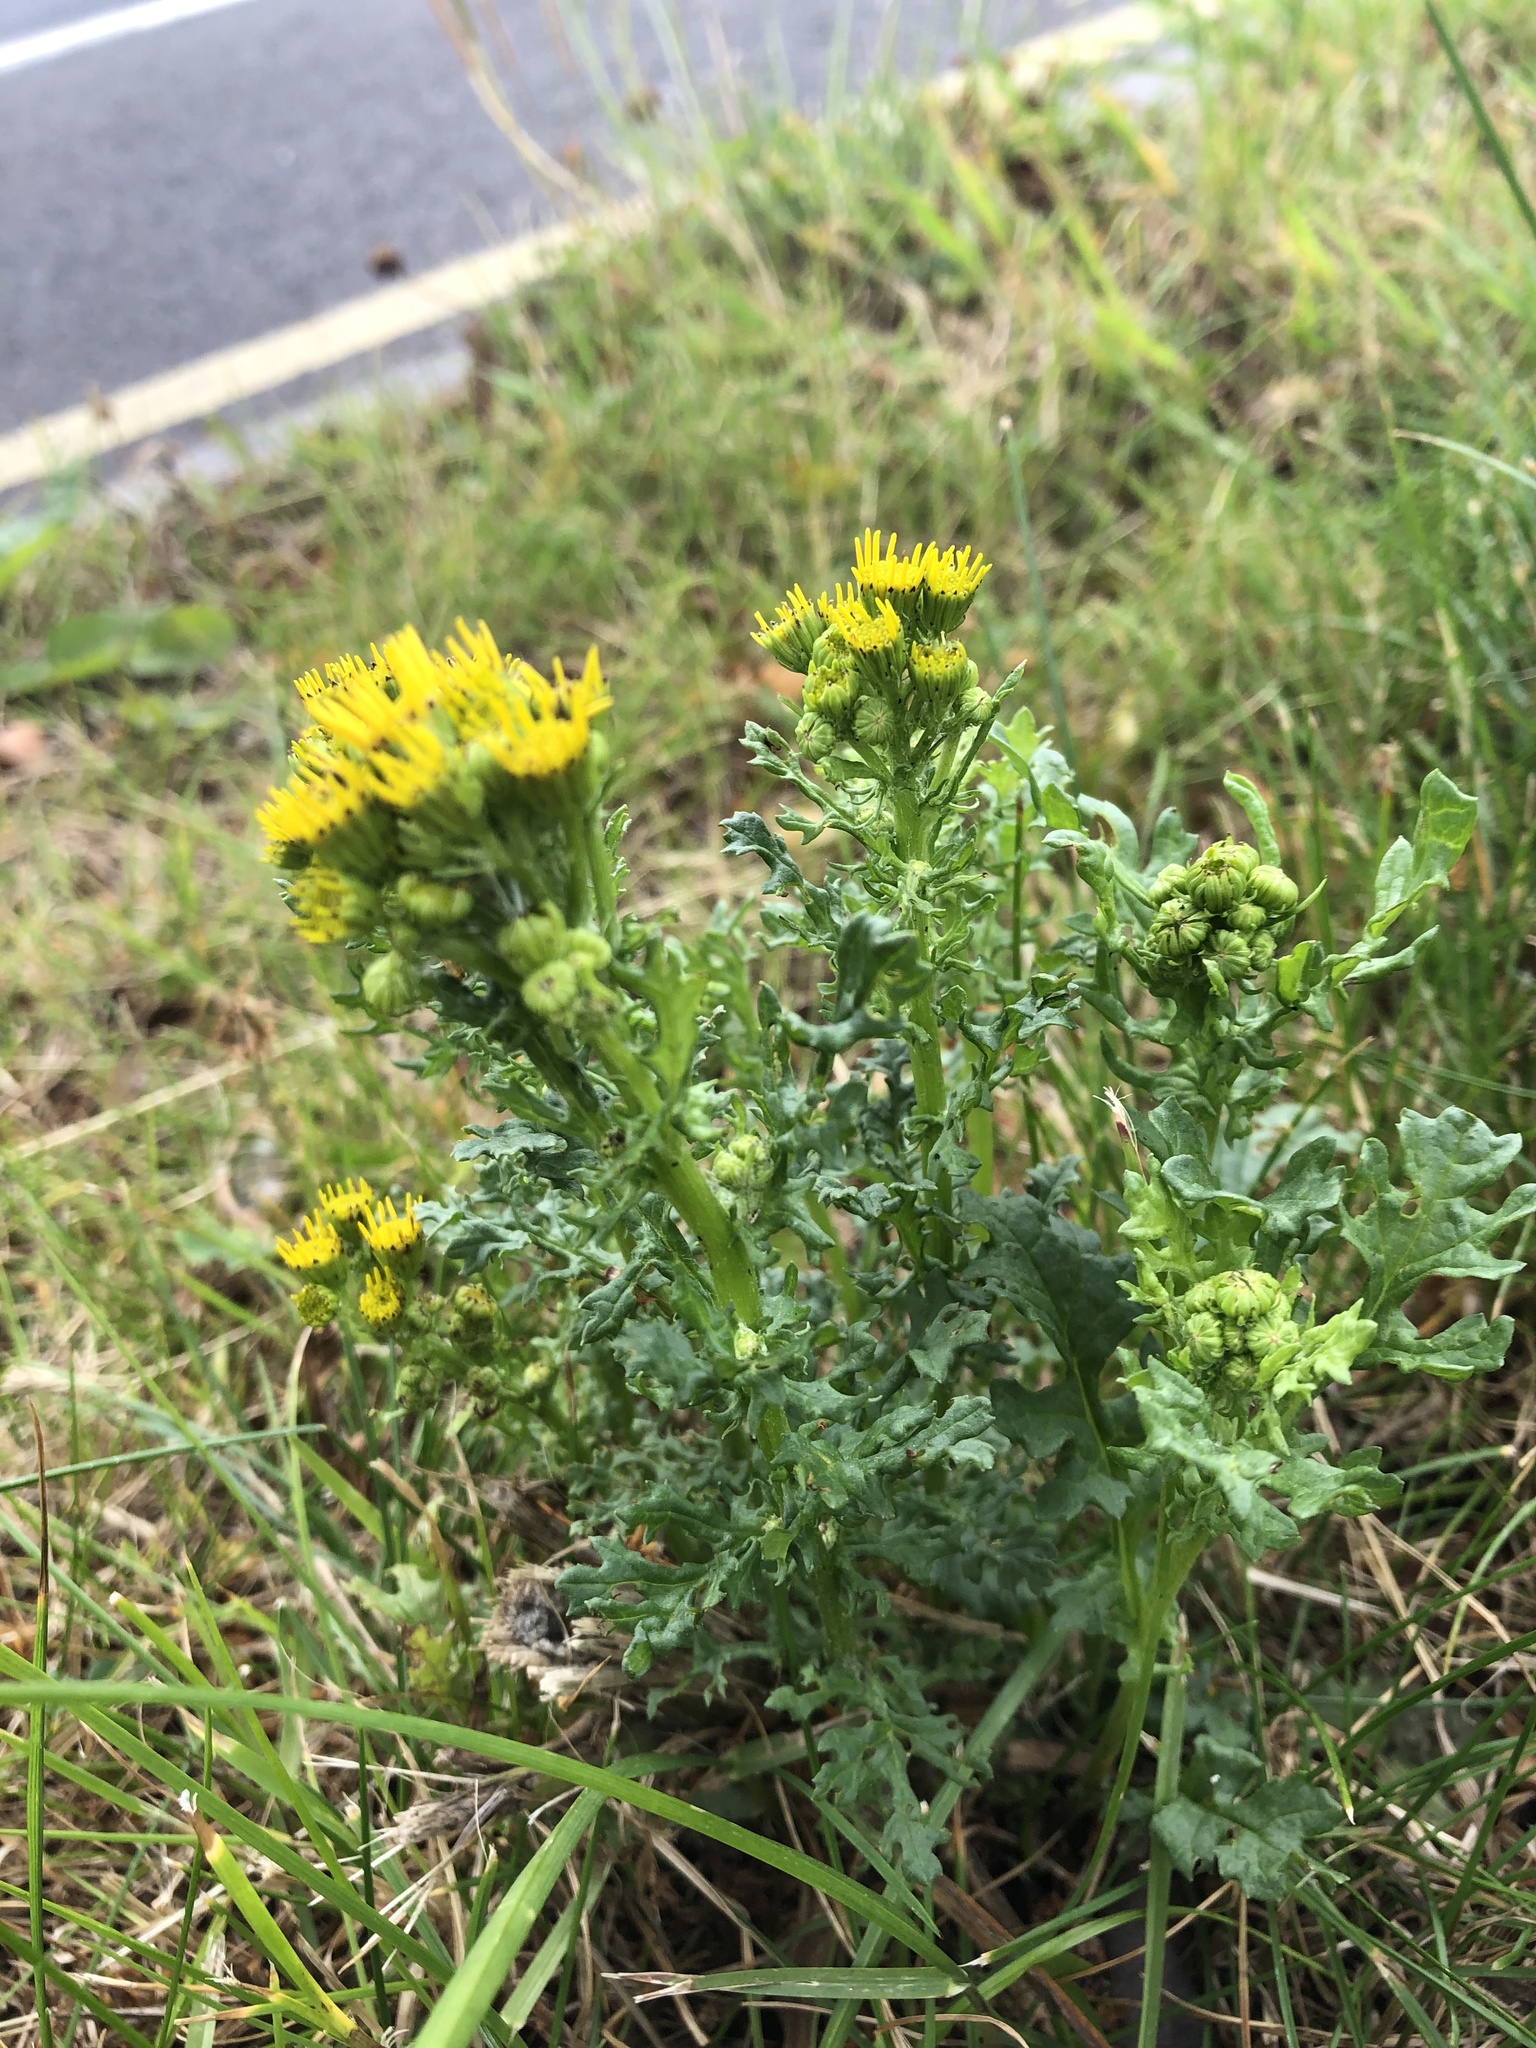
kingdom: Plantae
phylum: Tracheophyta
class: Magnoliopsida
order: Asterales
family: Asteraceae
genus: Jacobaea
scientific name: Jacobaea vulgaris
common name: Stinking willie
